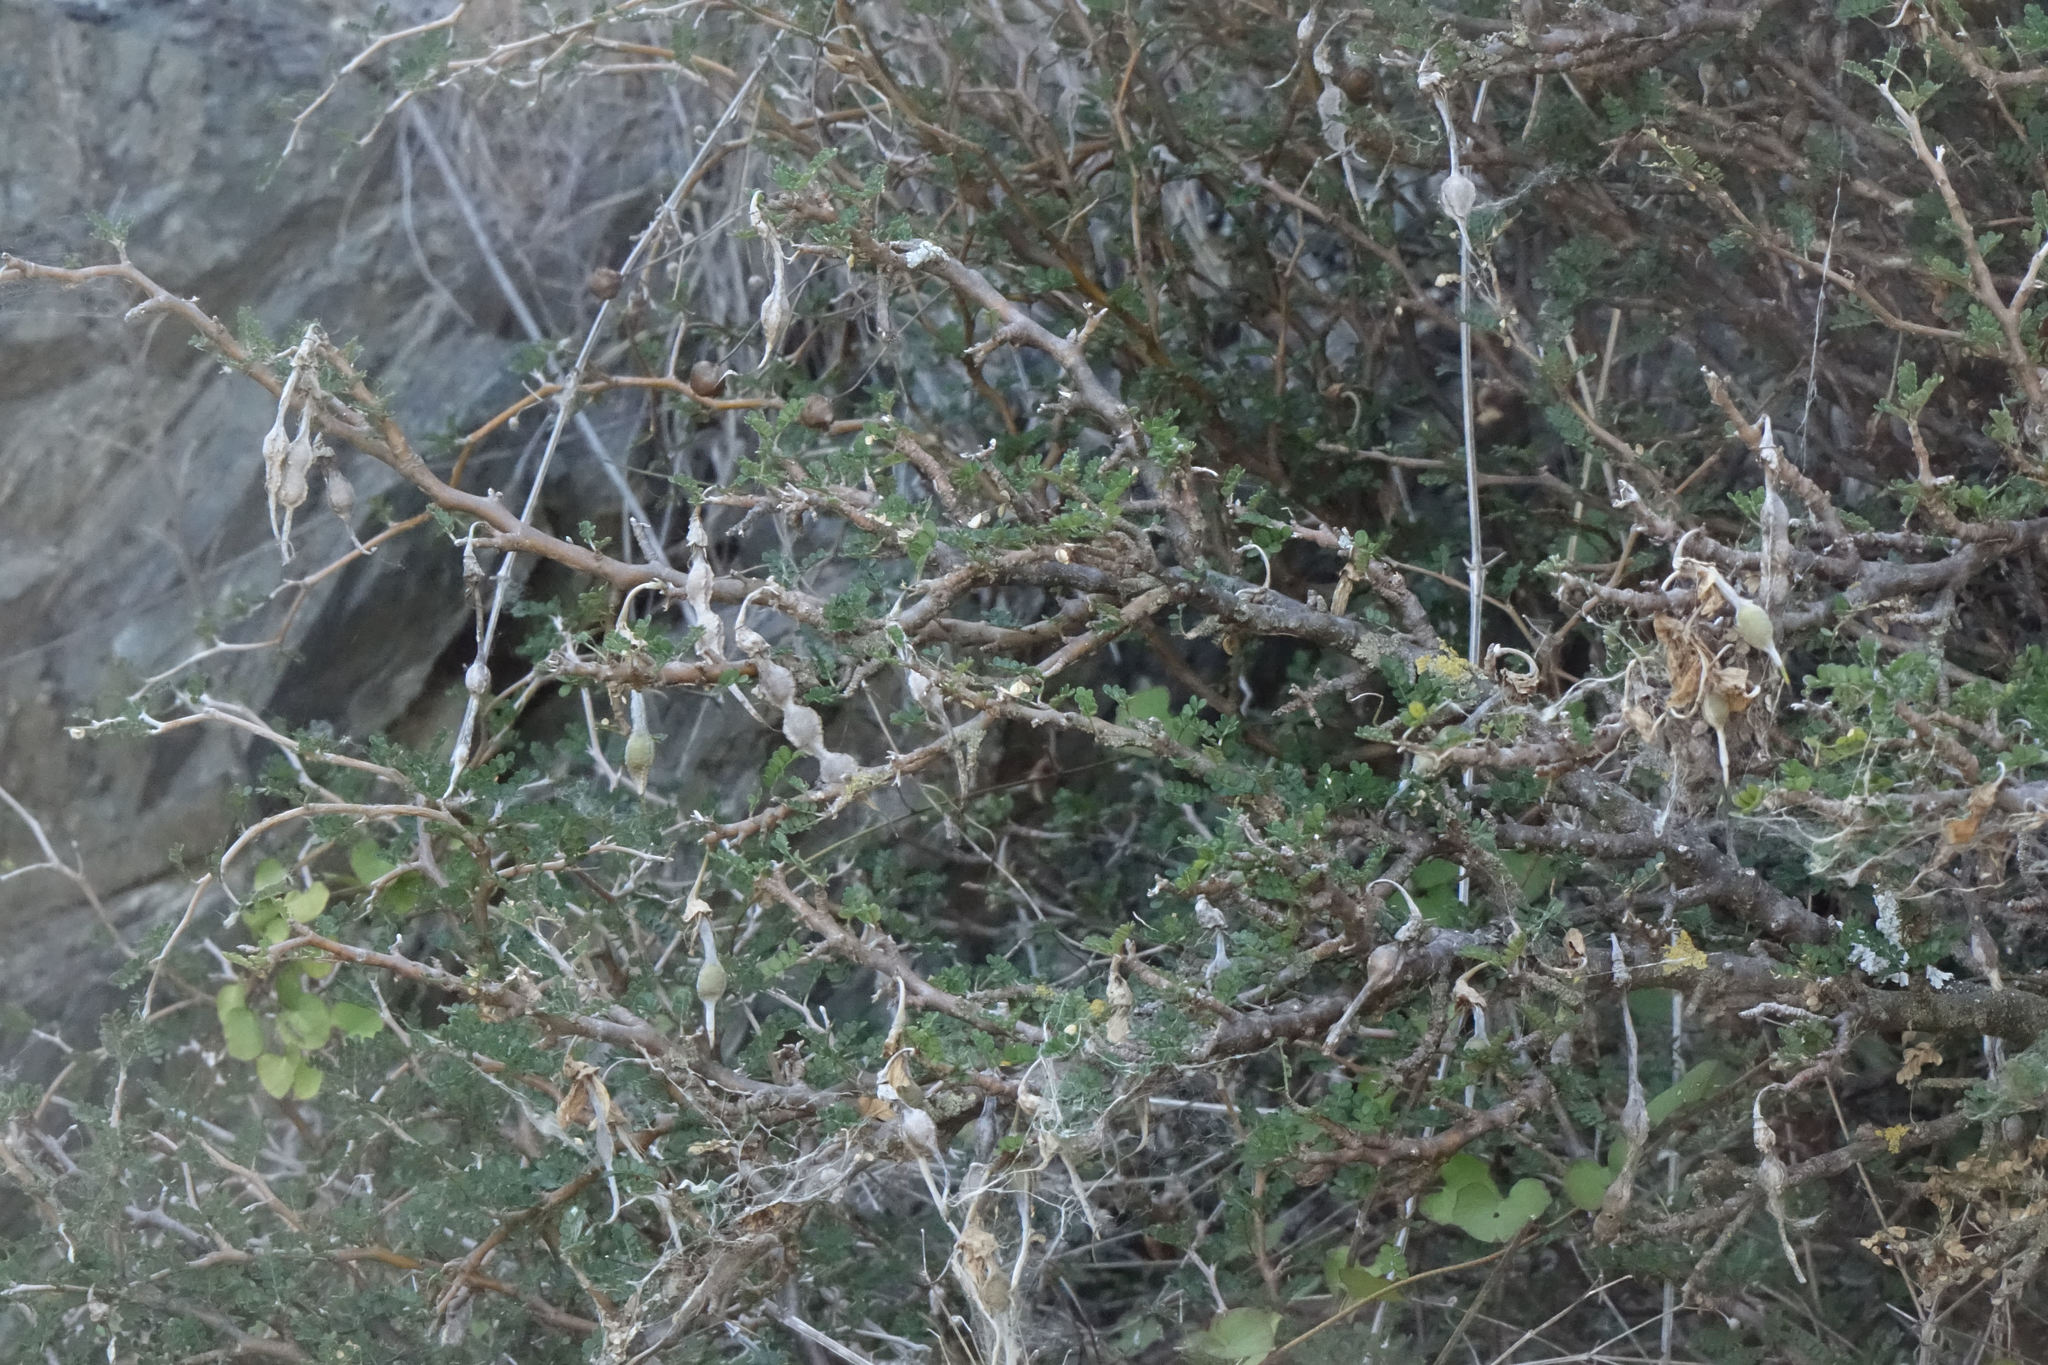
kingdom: Plantae
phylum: Tracheophyta
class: Magnoliopsida
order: Fabales
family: Fabaceae
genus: Sophora
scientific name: Sophora prostrata
